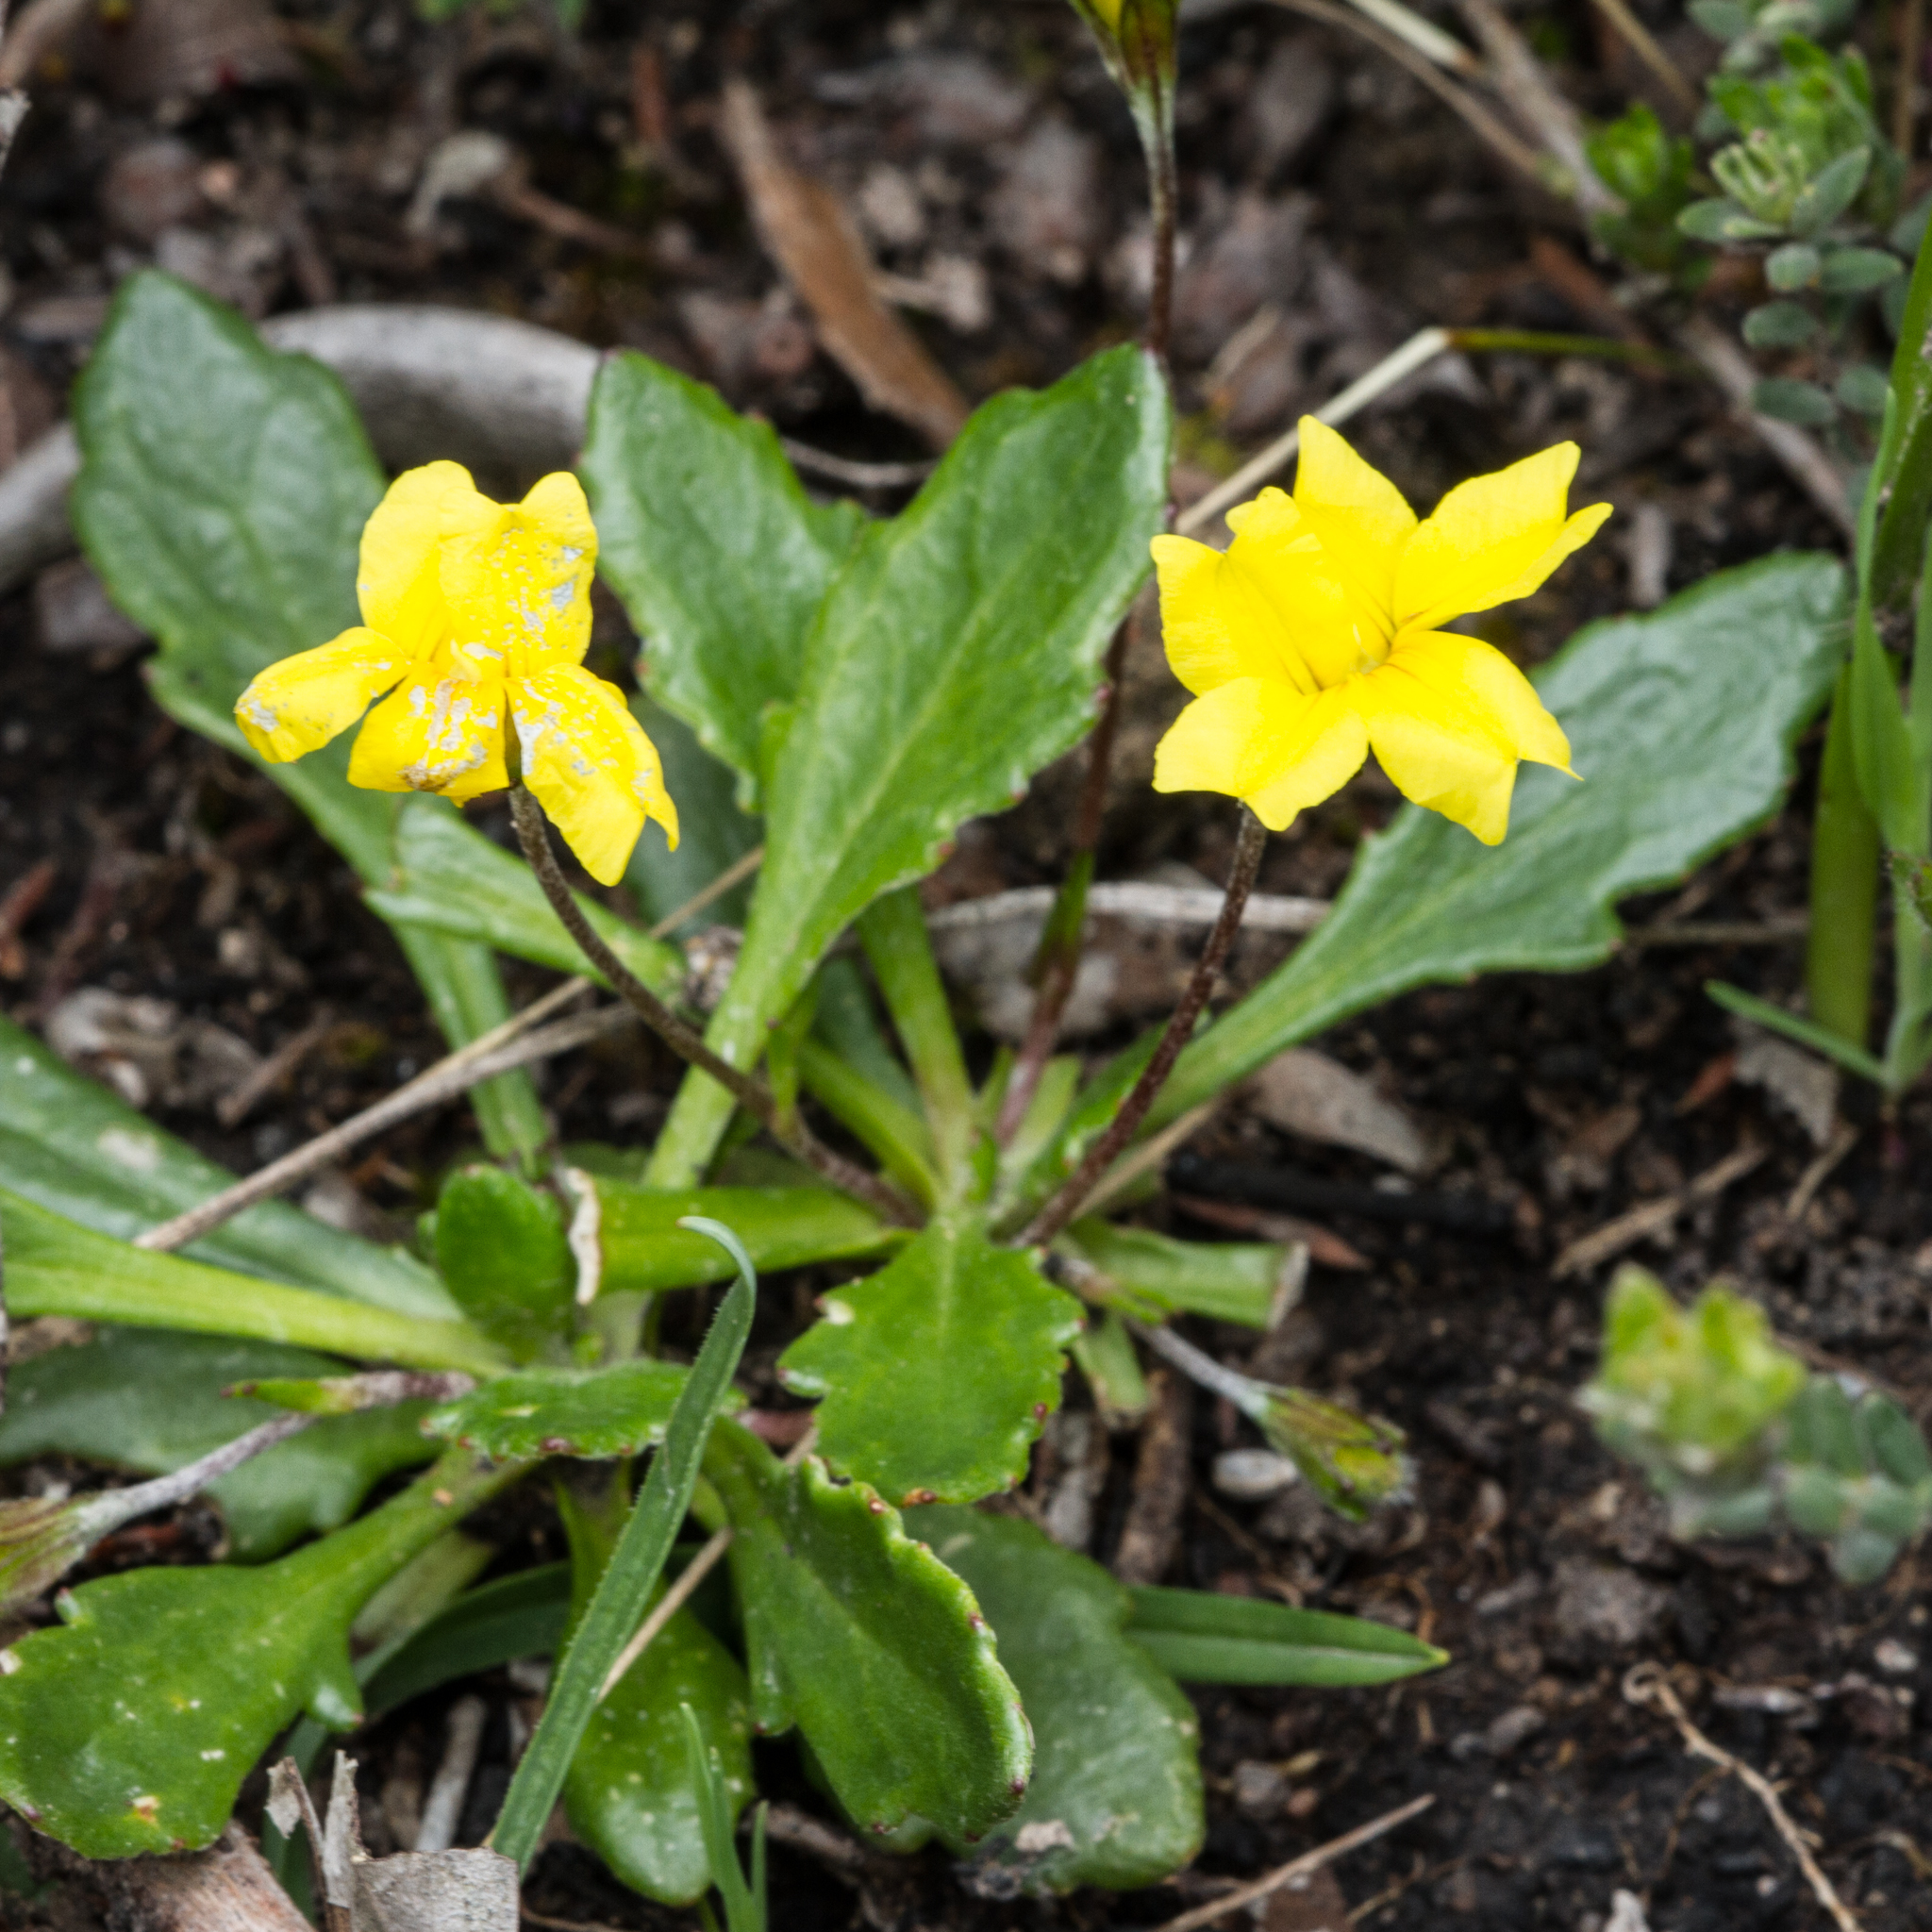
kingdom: Plantae
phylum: Tracheophyta
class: Magnoliopsida
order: Asterales
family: Goodeniaceae
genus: Goodenia
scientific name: Goodenia blackiana
